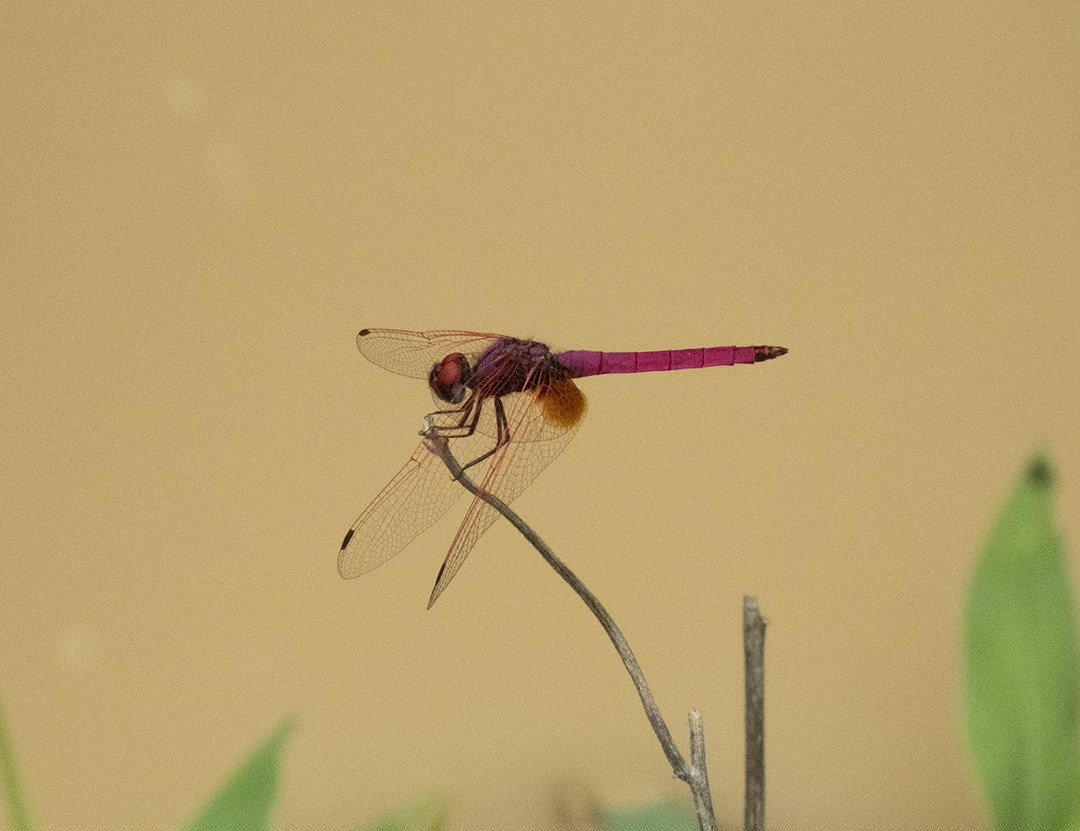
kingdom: Animalia
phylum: Arthropoda
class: Insecta
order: Odonata
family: Libellulidae
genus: Trithemis
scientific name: Trithemis aurora
